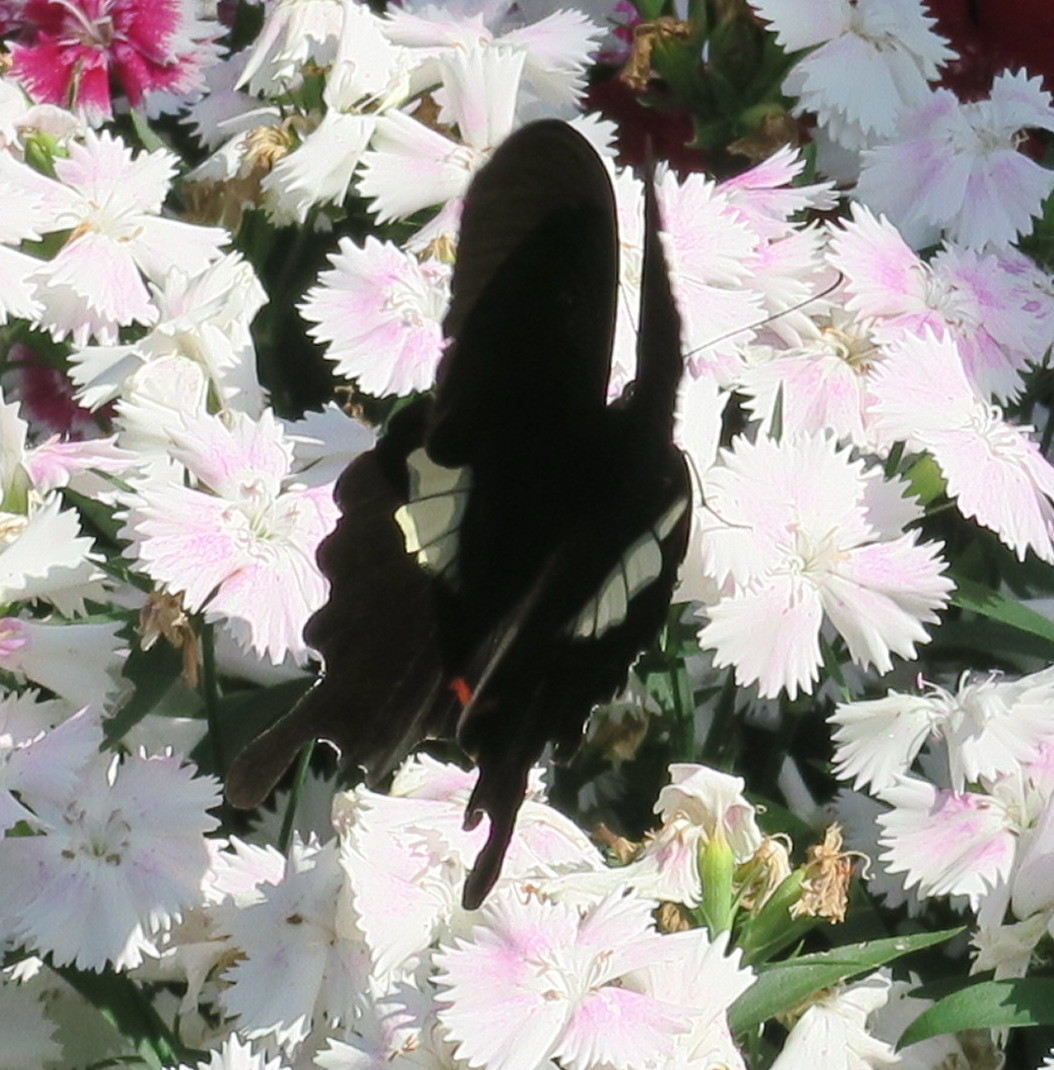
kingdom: Animalia
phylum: Arthropoda
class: Insecta
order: Lepidoptera
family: Papilionidae
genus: Papilio
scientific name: Papilio helenus
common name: Red helen
